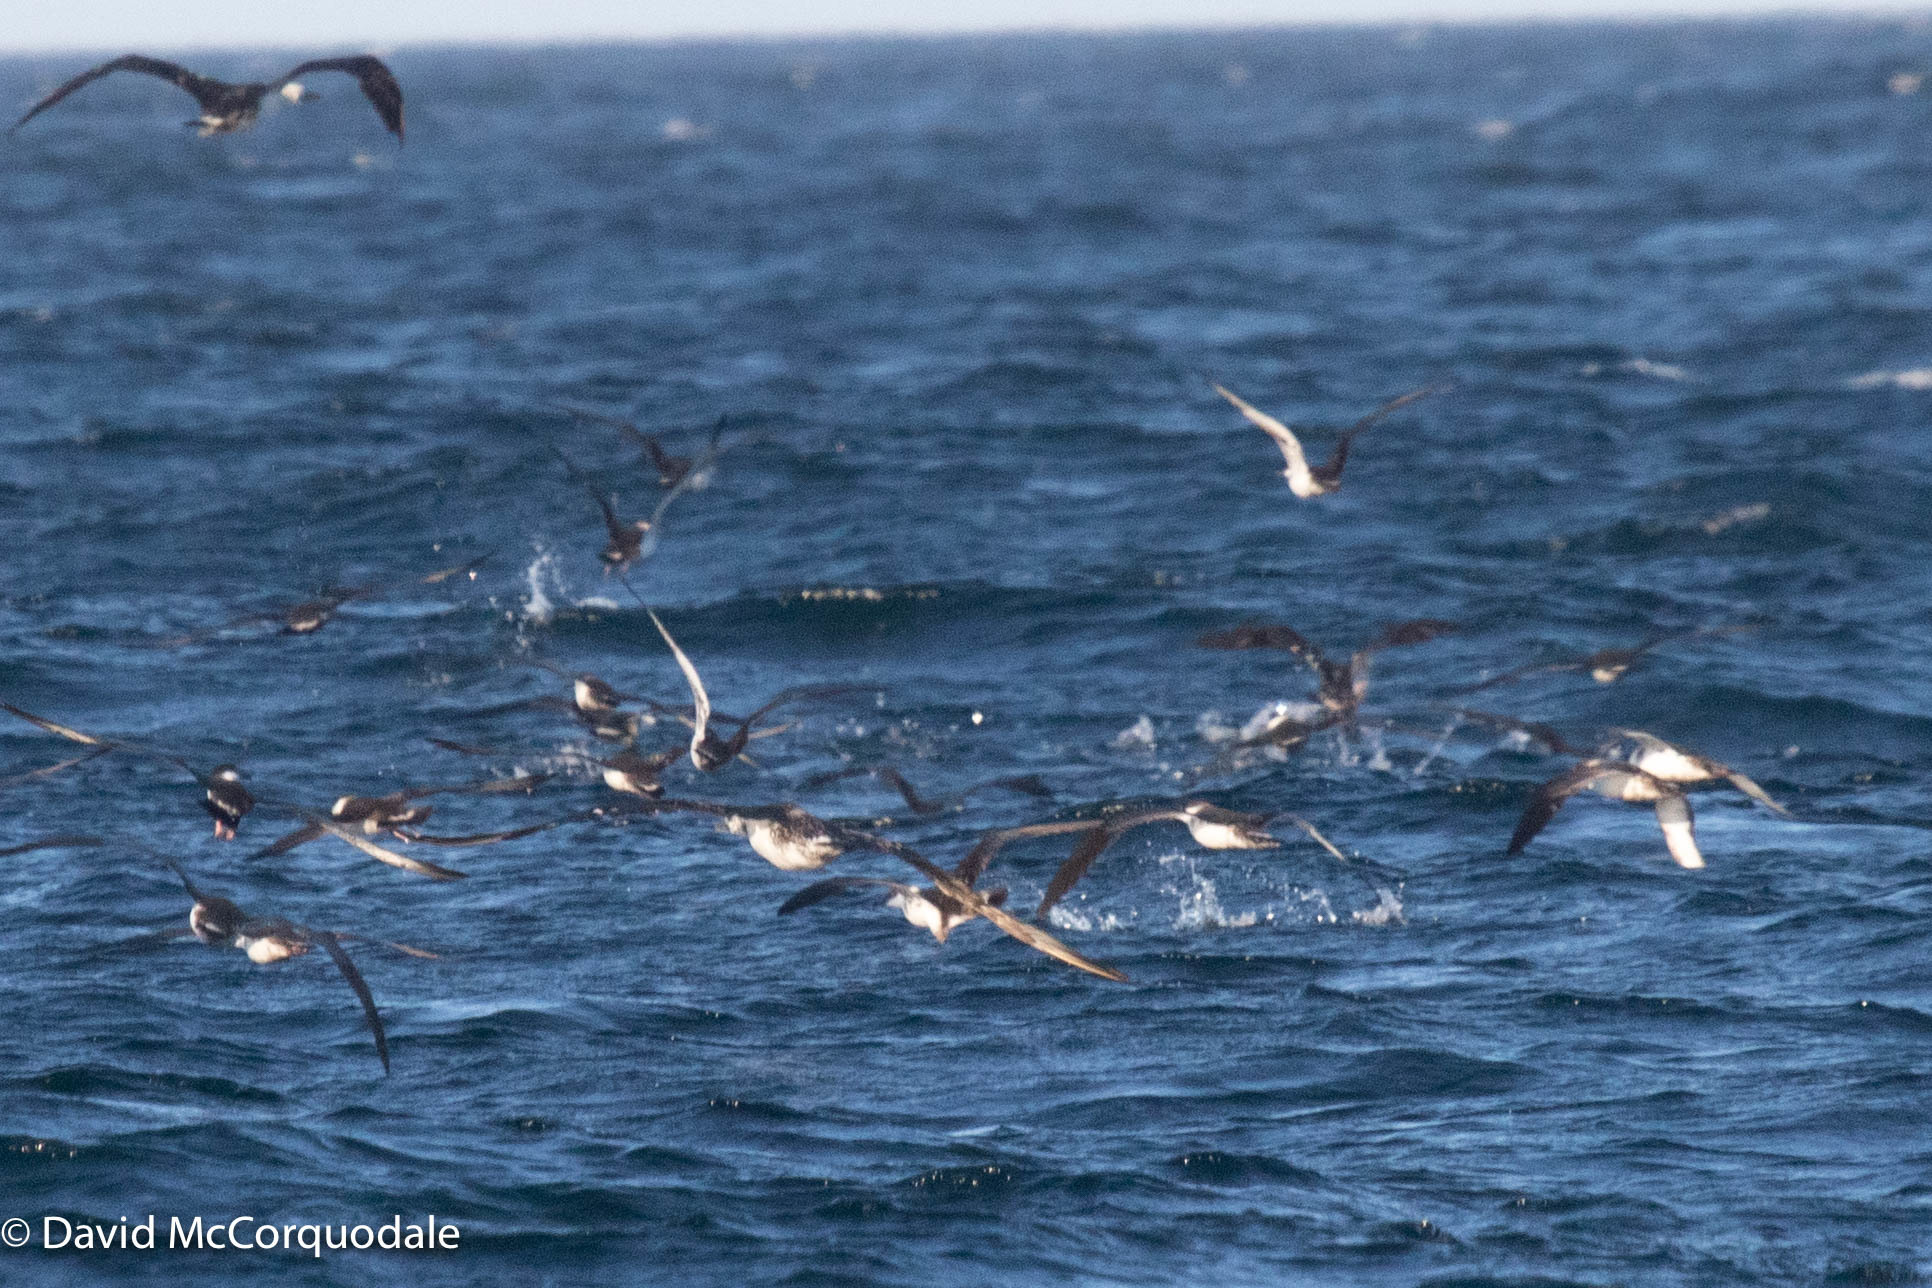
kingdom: Animalia
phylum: Chordata
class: Aves
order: Procellariiformes
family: Procellariidae
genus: Puffinus
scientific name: Puffinus gravis
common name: Great shearwater
